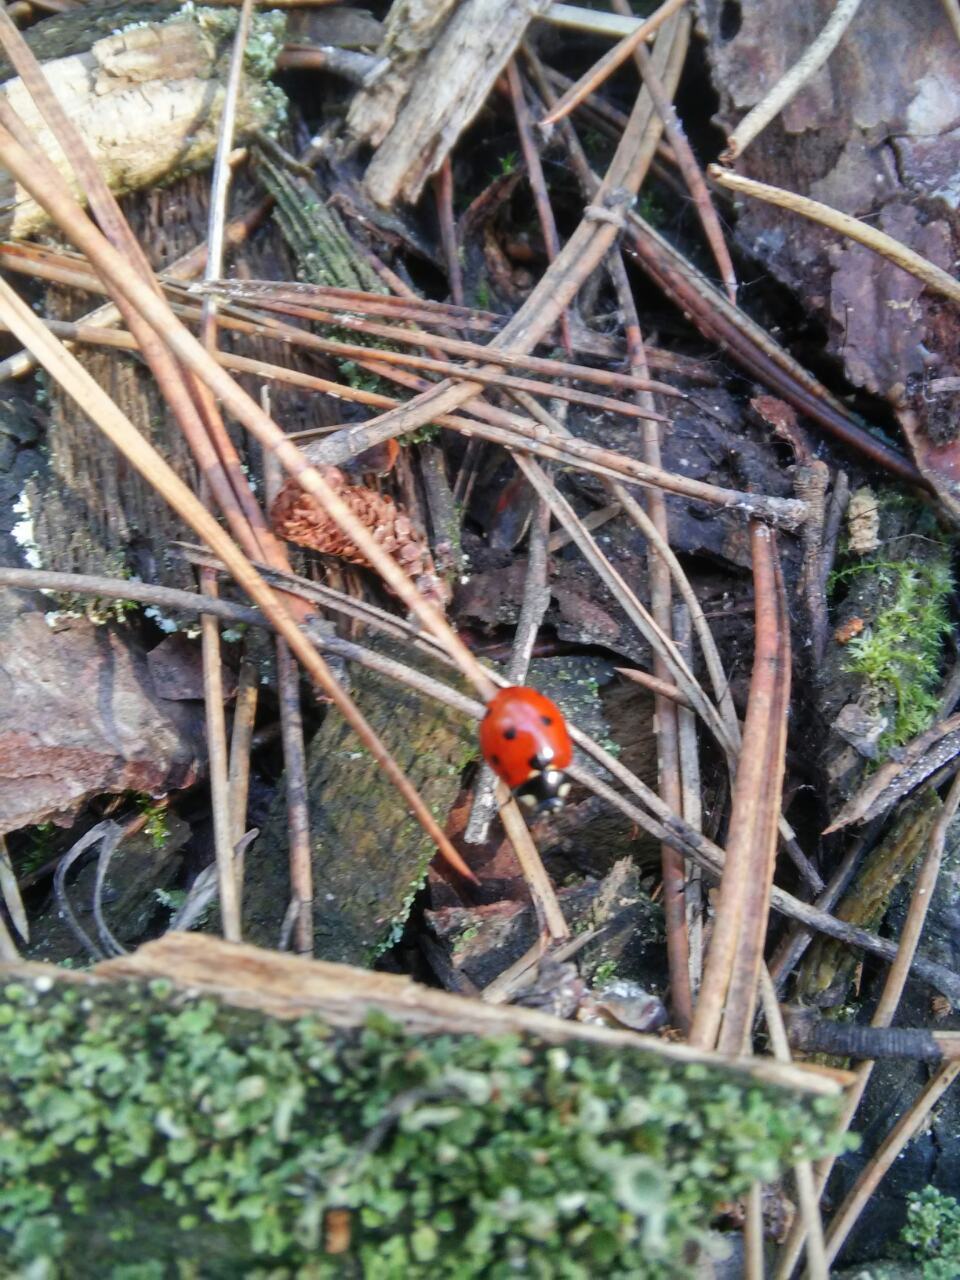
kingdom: Animalia
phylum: Arthropoda
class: Insecta
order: Coleoptera
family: Coccinellidae
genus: Coccinella
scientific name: Coccinella septempunctata
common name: Sevenspotted lady beetle
